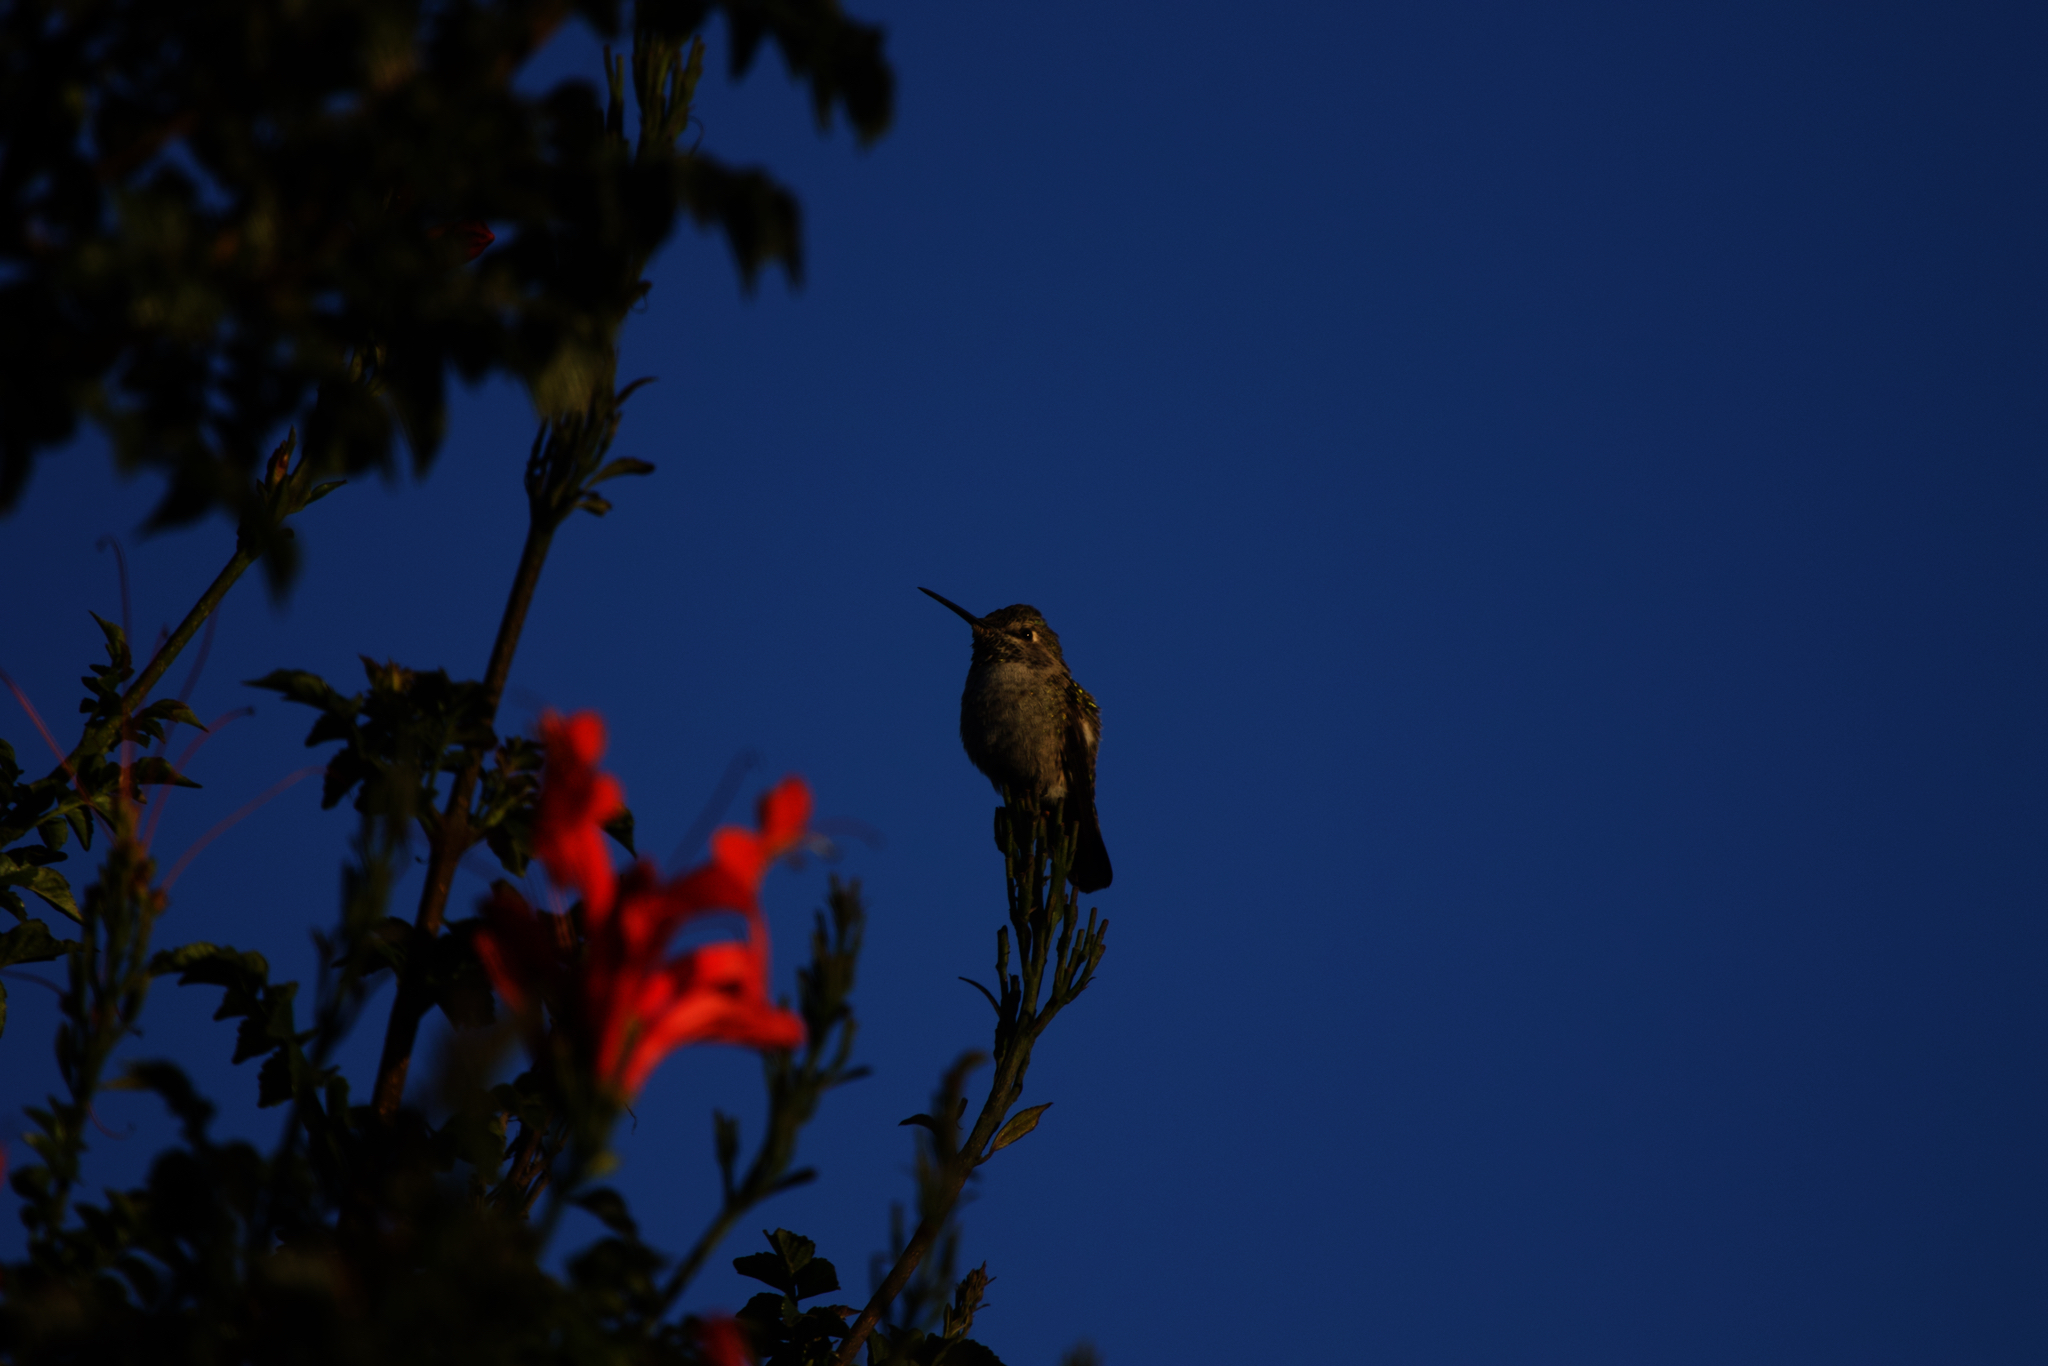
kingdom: Animalia
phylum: Chordata
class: Aves
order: Apodiformes
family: Trochilidae
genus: Calypte
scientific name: Calypte anna
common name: Anna's hummingbird
